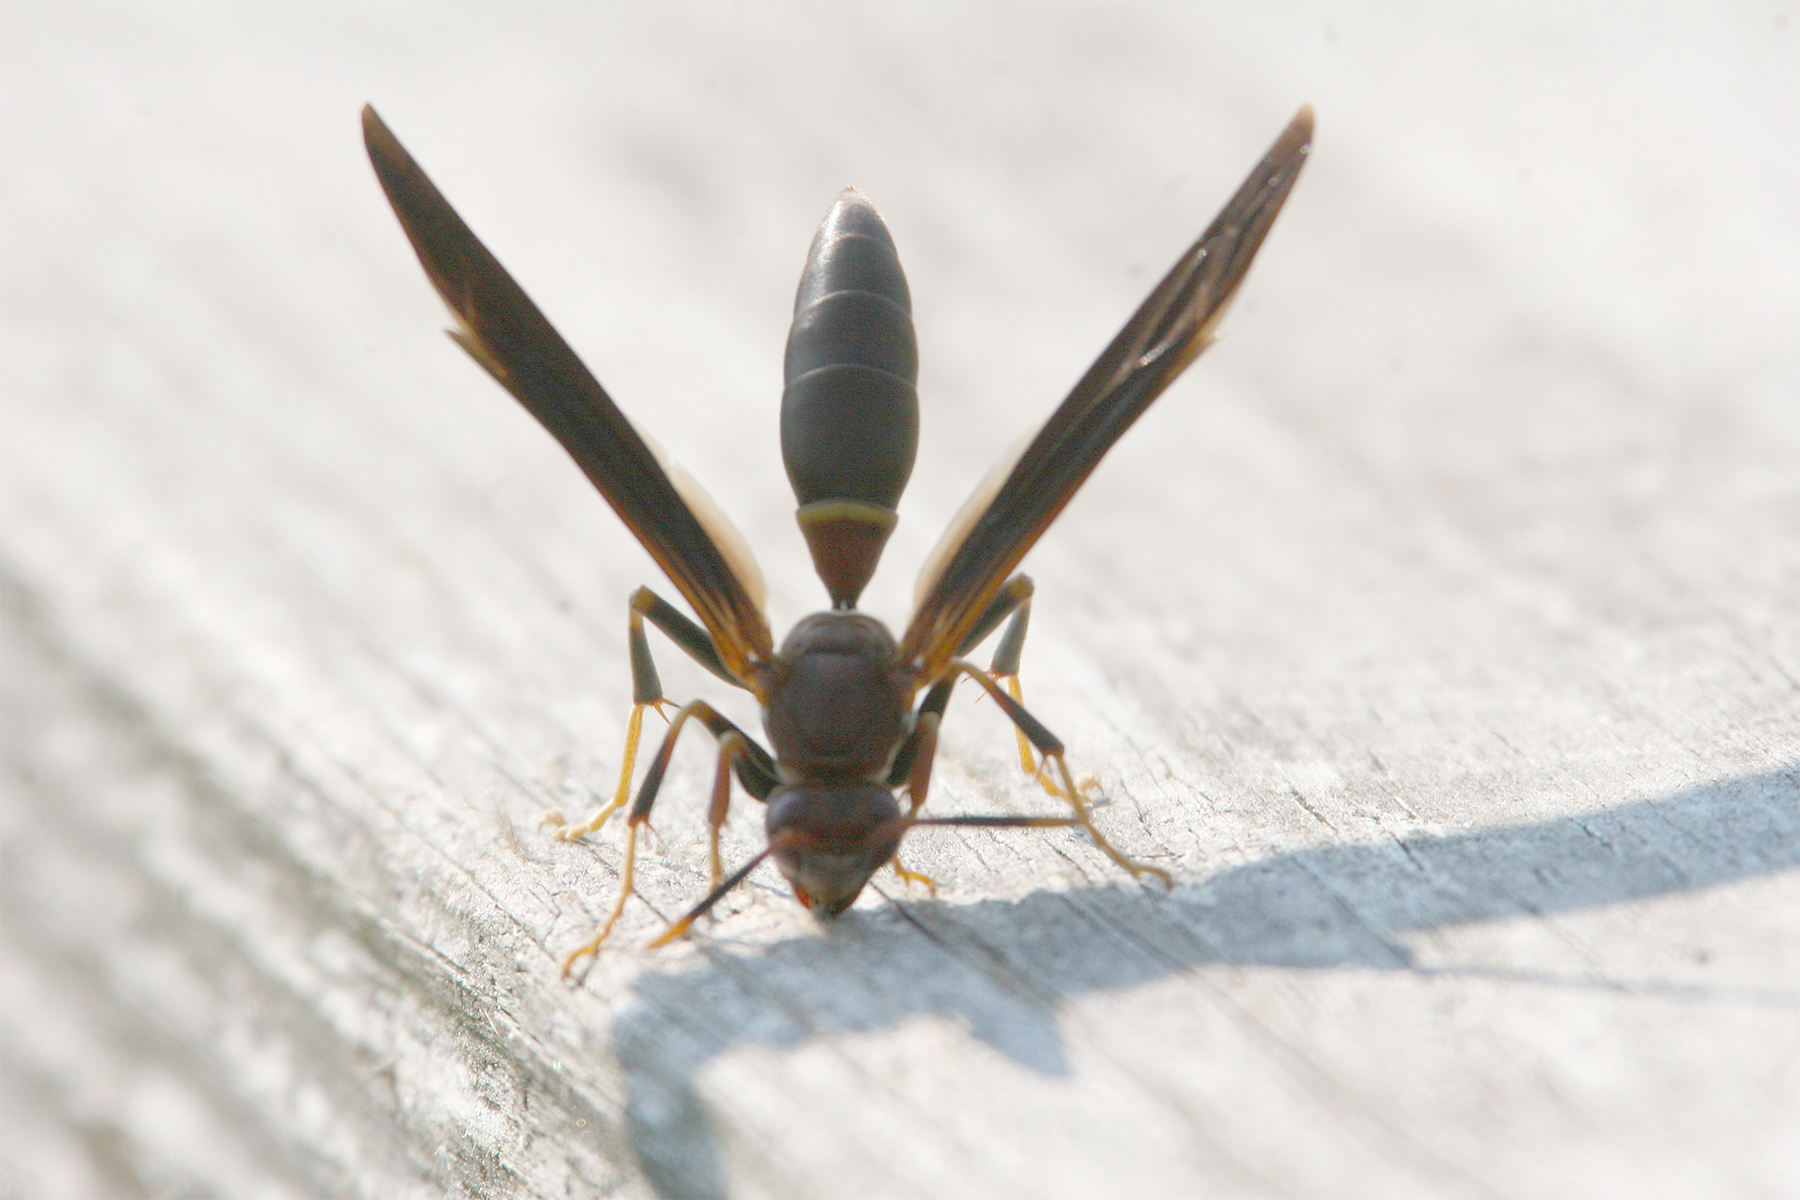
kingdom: Animalia
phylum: Arthropoda
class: Insecta
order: Hymenoptera
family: Eumenidae
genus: Polistes
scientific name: Polistes annularis
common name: Ringed paper wasp
